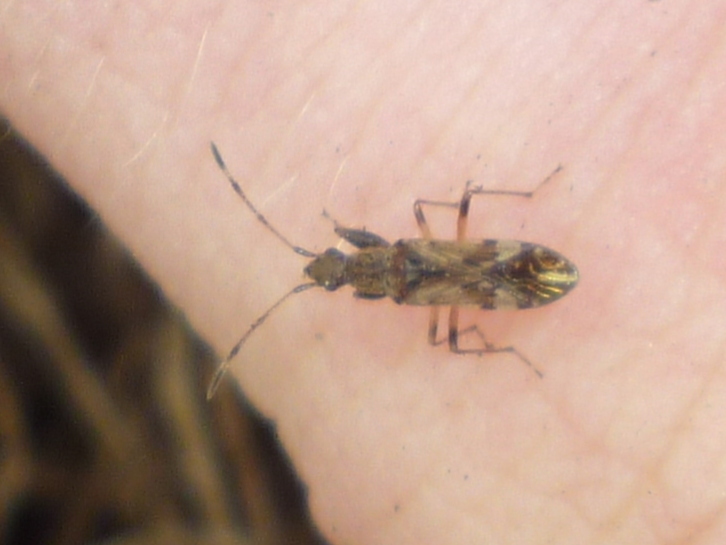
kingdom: Animalia
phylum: Arthropoda
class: Insecta
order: Hemiptera
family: Rhyparochromidae
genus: Neopamera
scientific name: Neopamera albocincta
